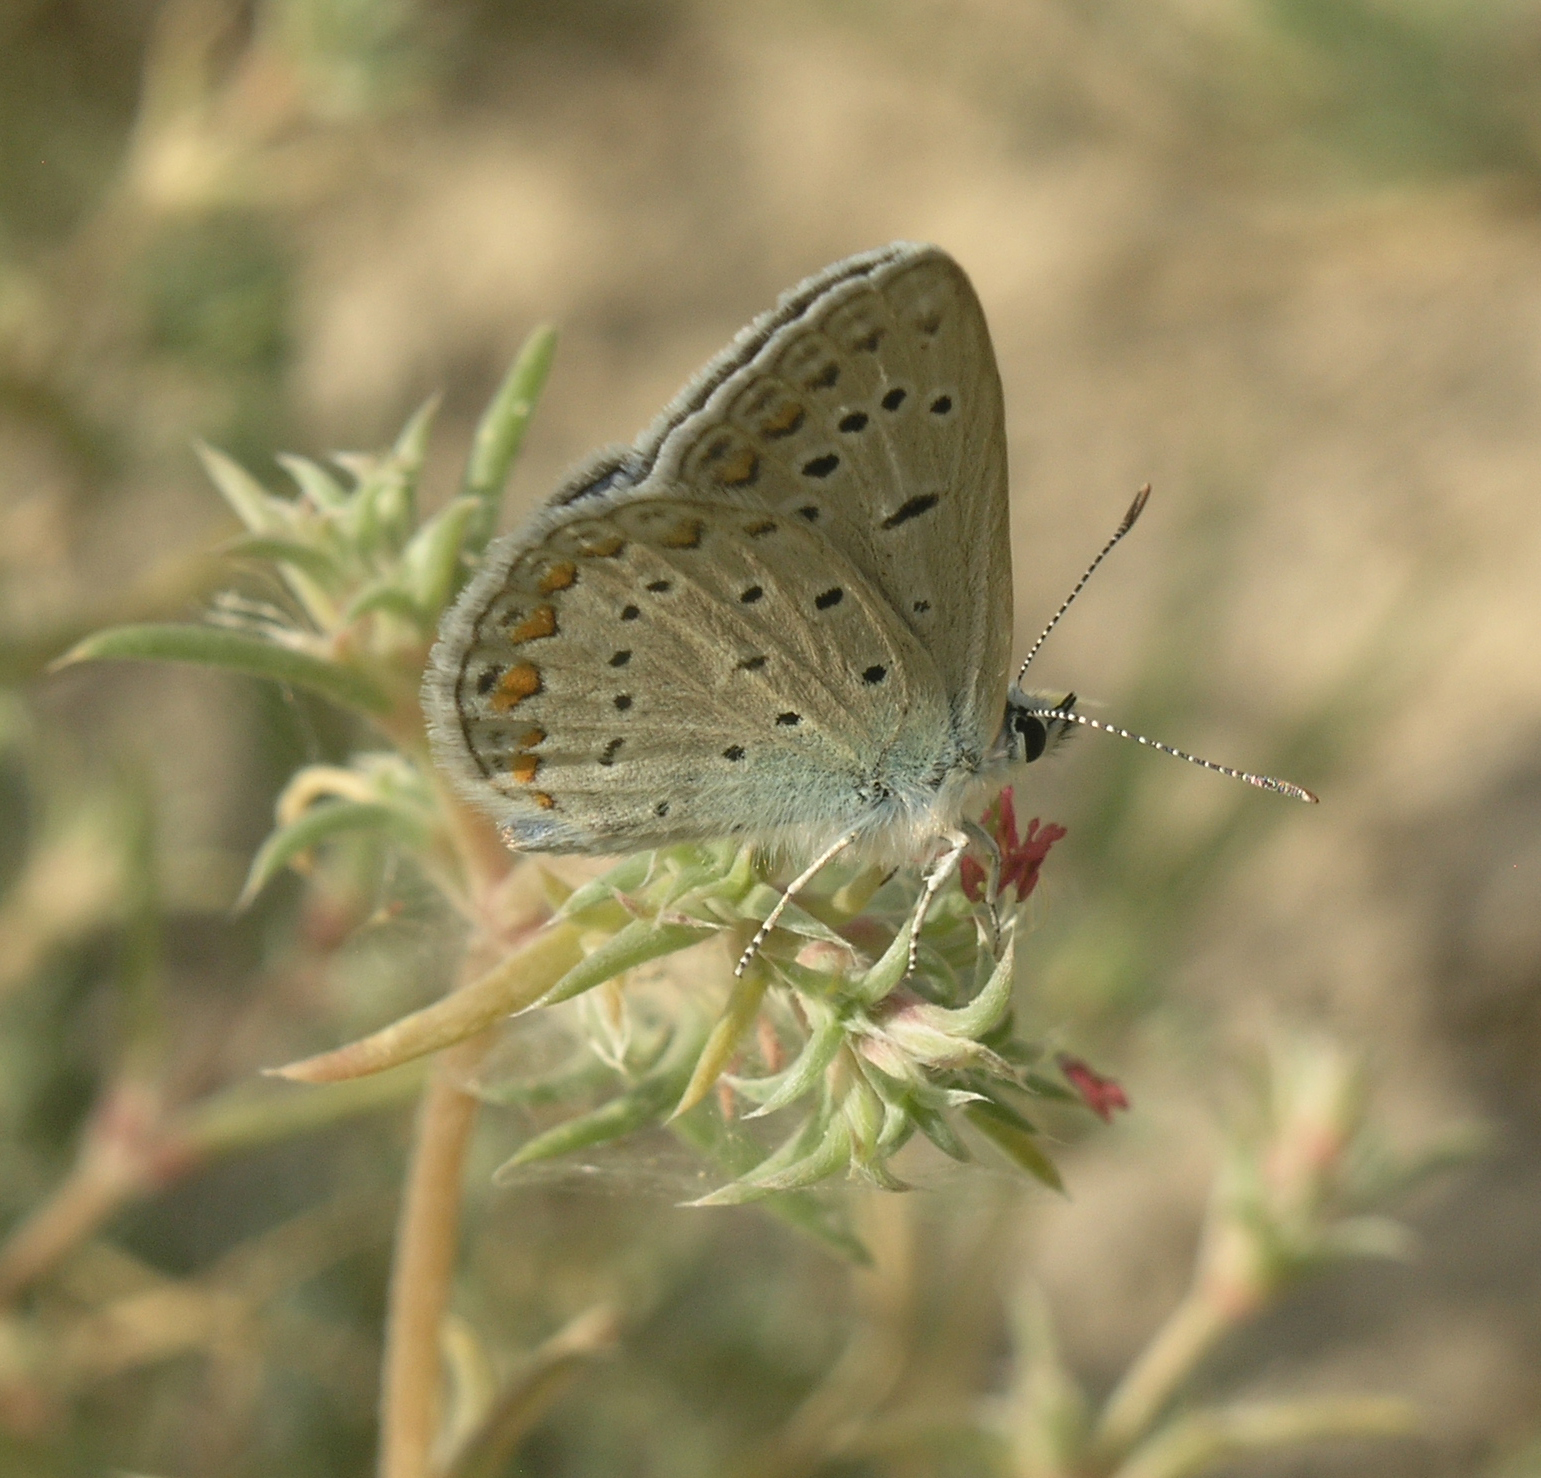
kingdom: Animalia
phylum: Arthropoda
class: Insecta
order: Lepidoptera
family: Lycaenidae
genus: Polyommatus
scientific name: Polyommatus icarus
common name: Common blue
